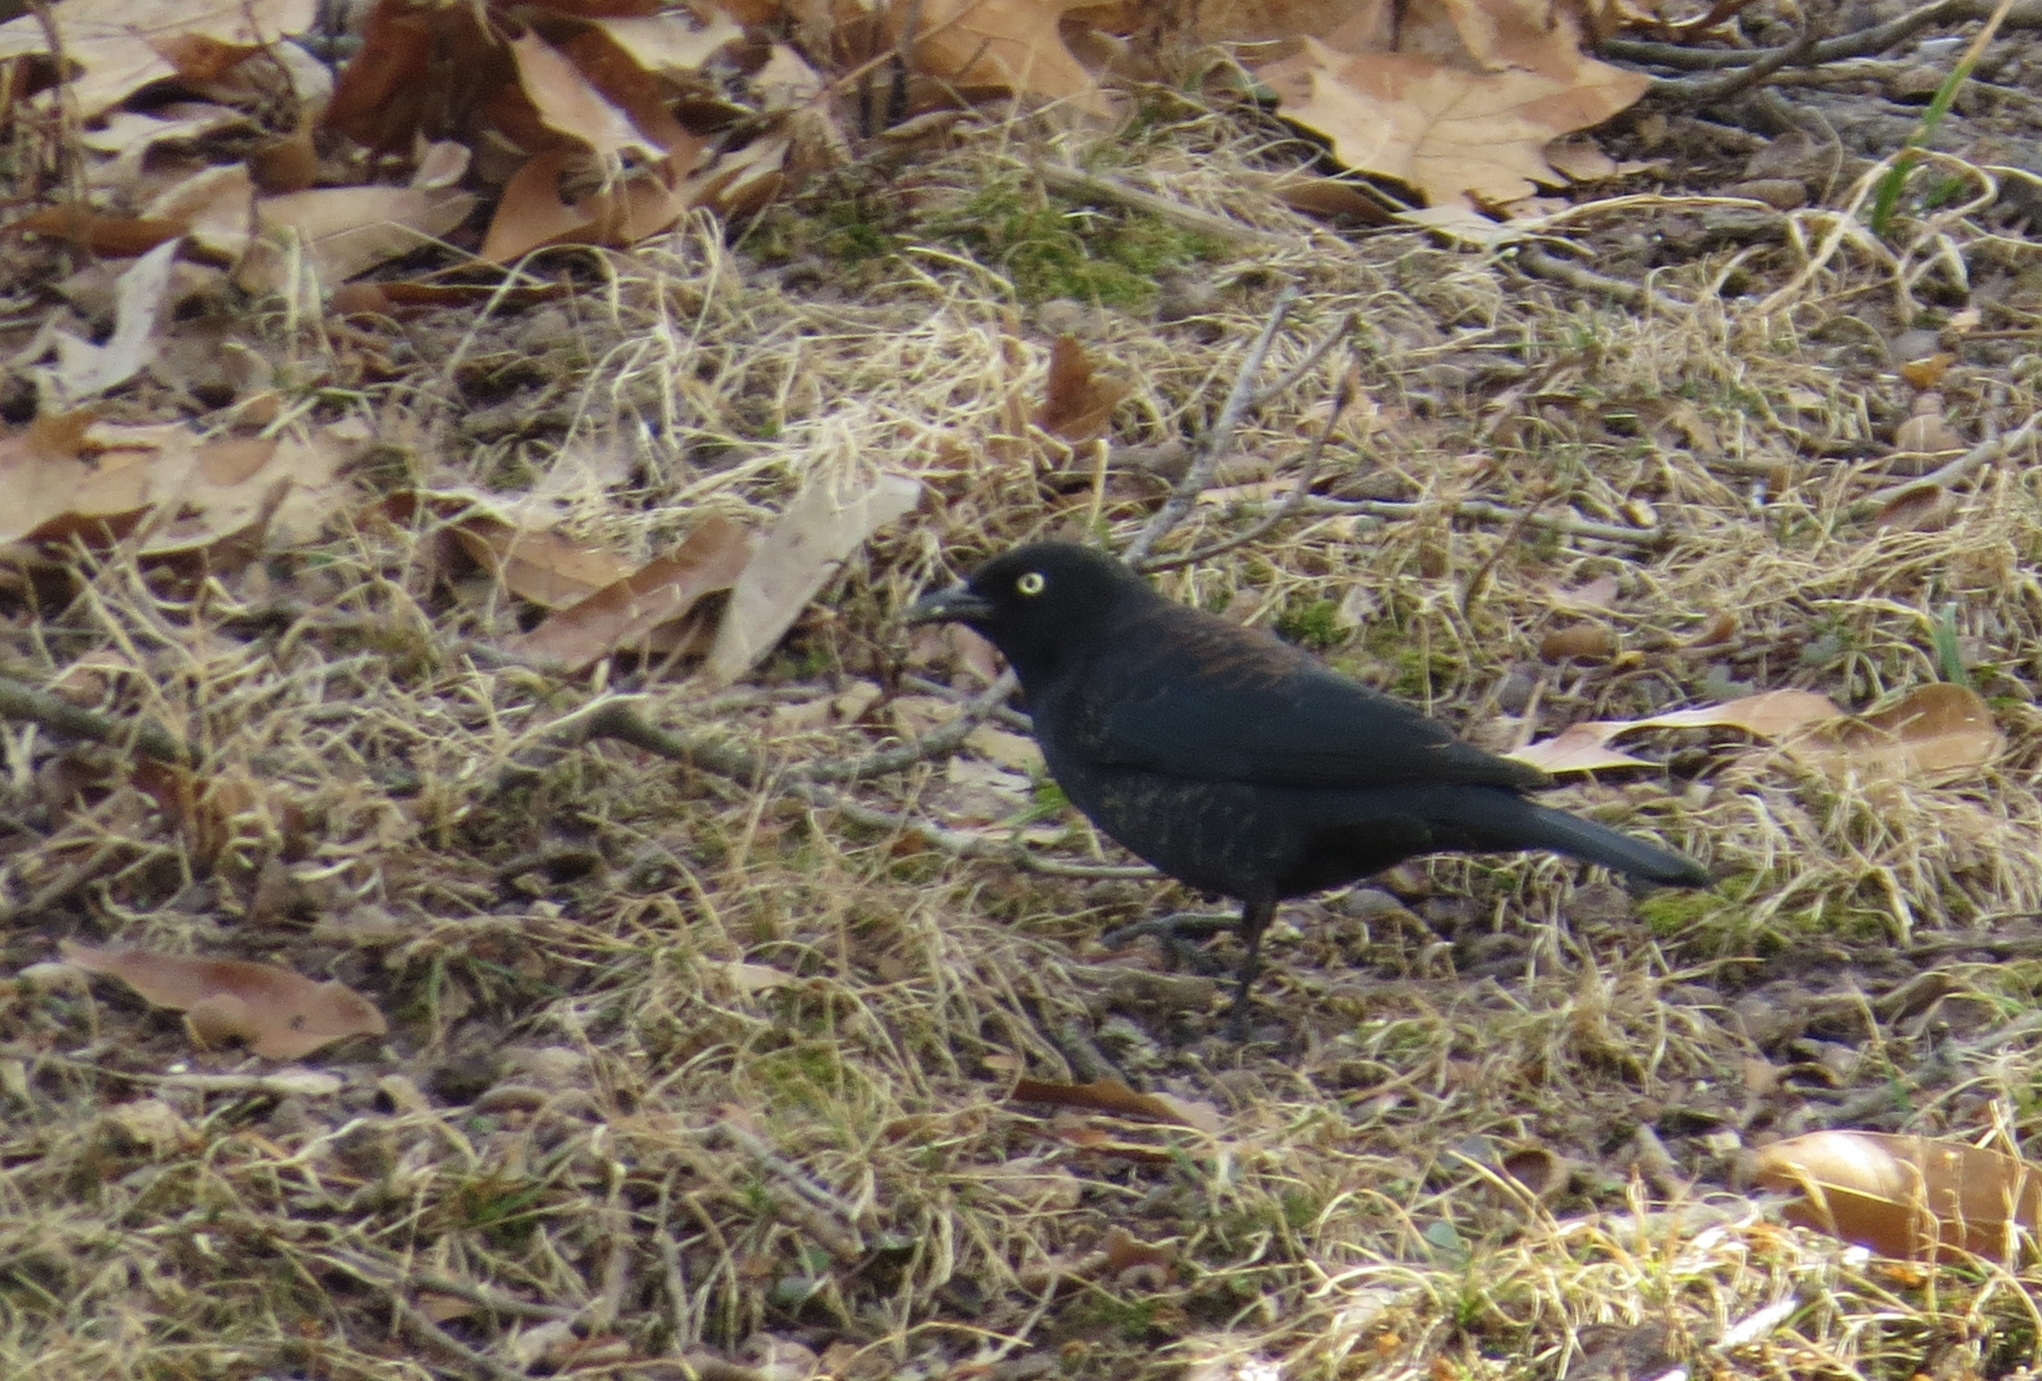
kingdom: Animalia
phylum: Chordata
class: Aves
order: Passeriformes
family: Icteridae
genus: Euphagus
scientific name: Euphagus carolinus
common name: Rusty blackbird
